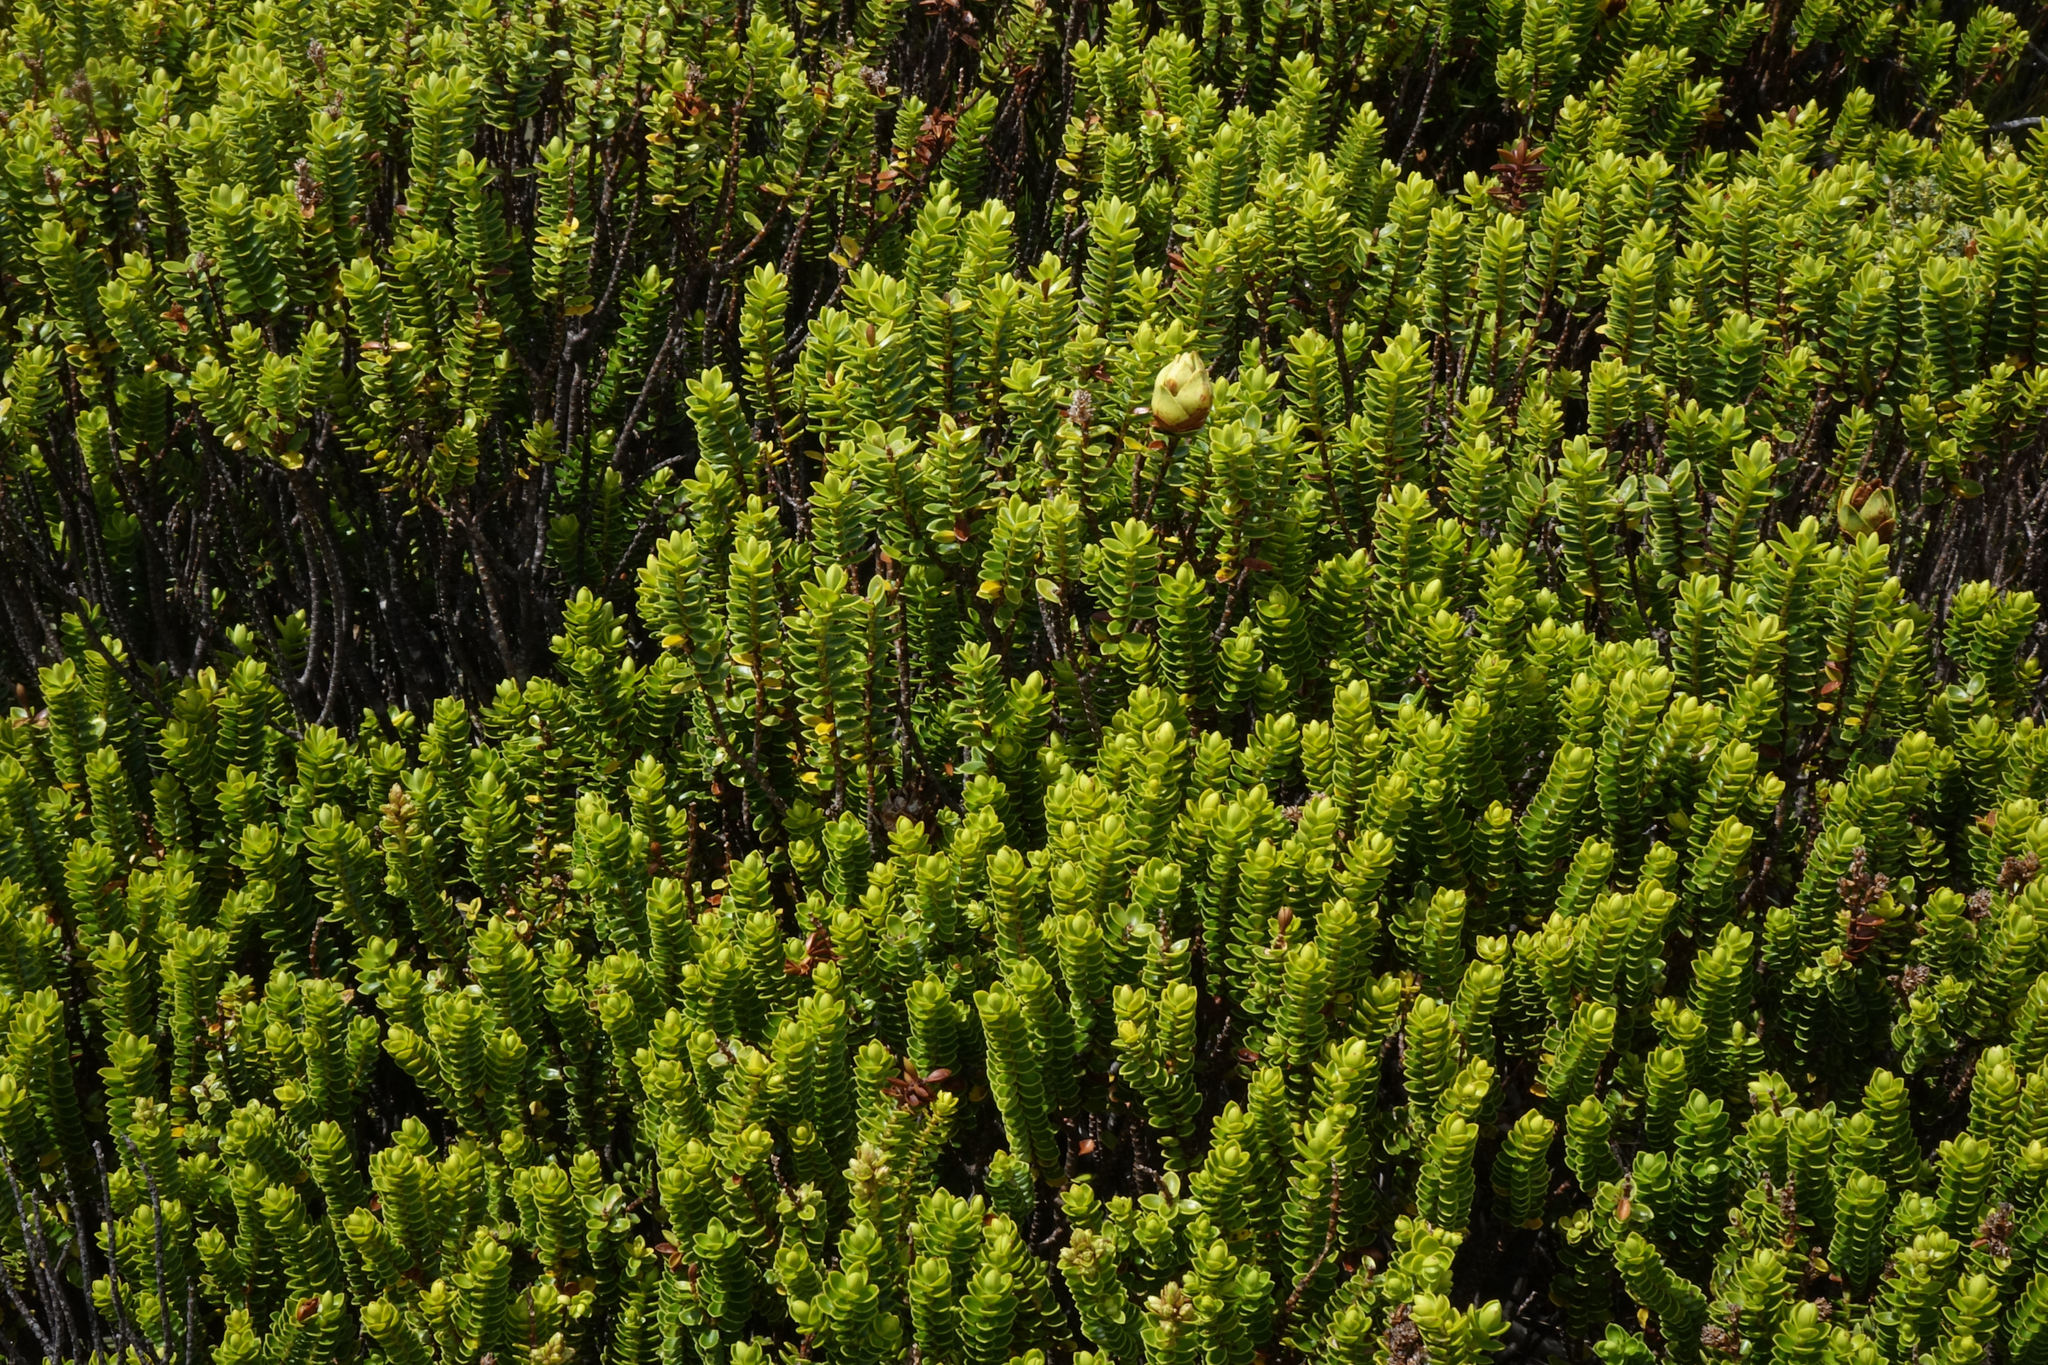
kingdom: Plantae
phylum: Tracheophyta
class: Magnoliopsida
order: Lamiales
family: Plantaginaceae
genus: Veronica
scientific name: Veronica odora
